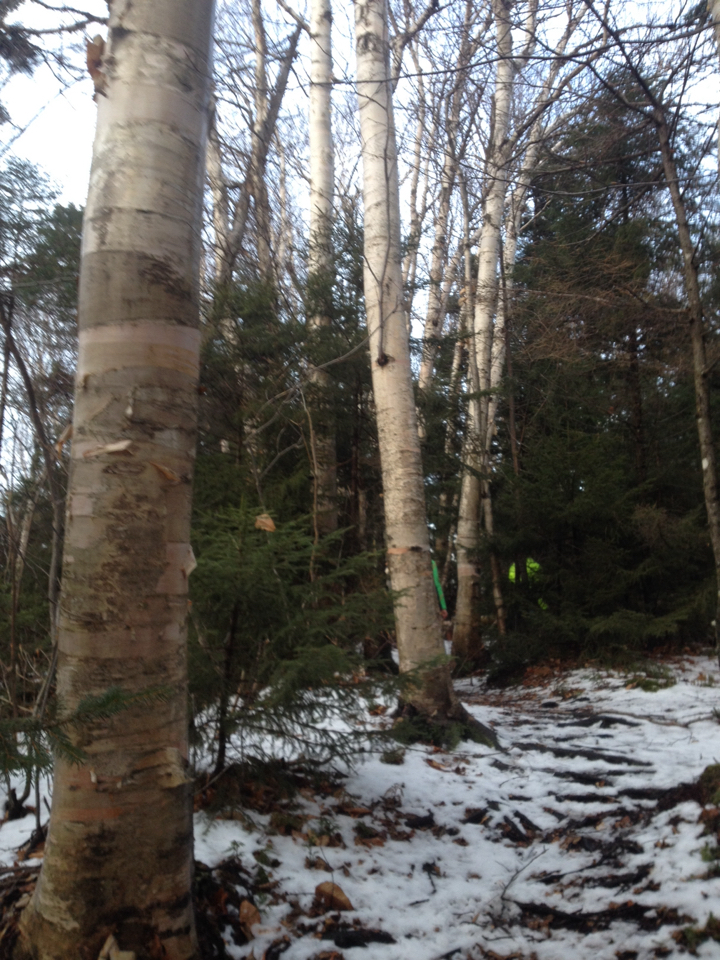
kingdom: Plantae
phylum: Tracheophyta
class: Magnoliopsida
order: Fagales
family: Betulaceae
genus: Betula
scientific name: Betula cordifolia
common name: Mountain white birch
